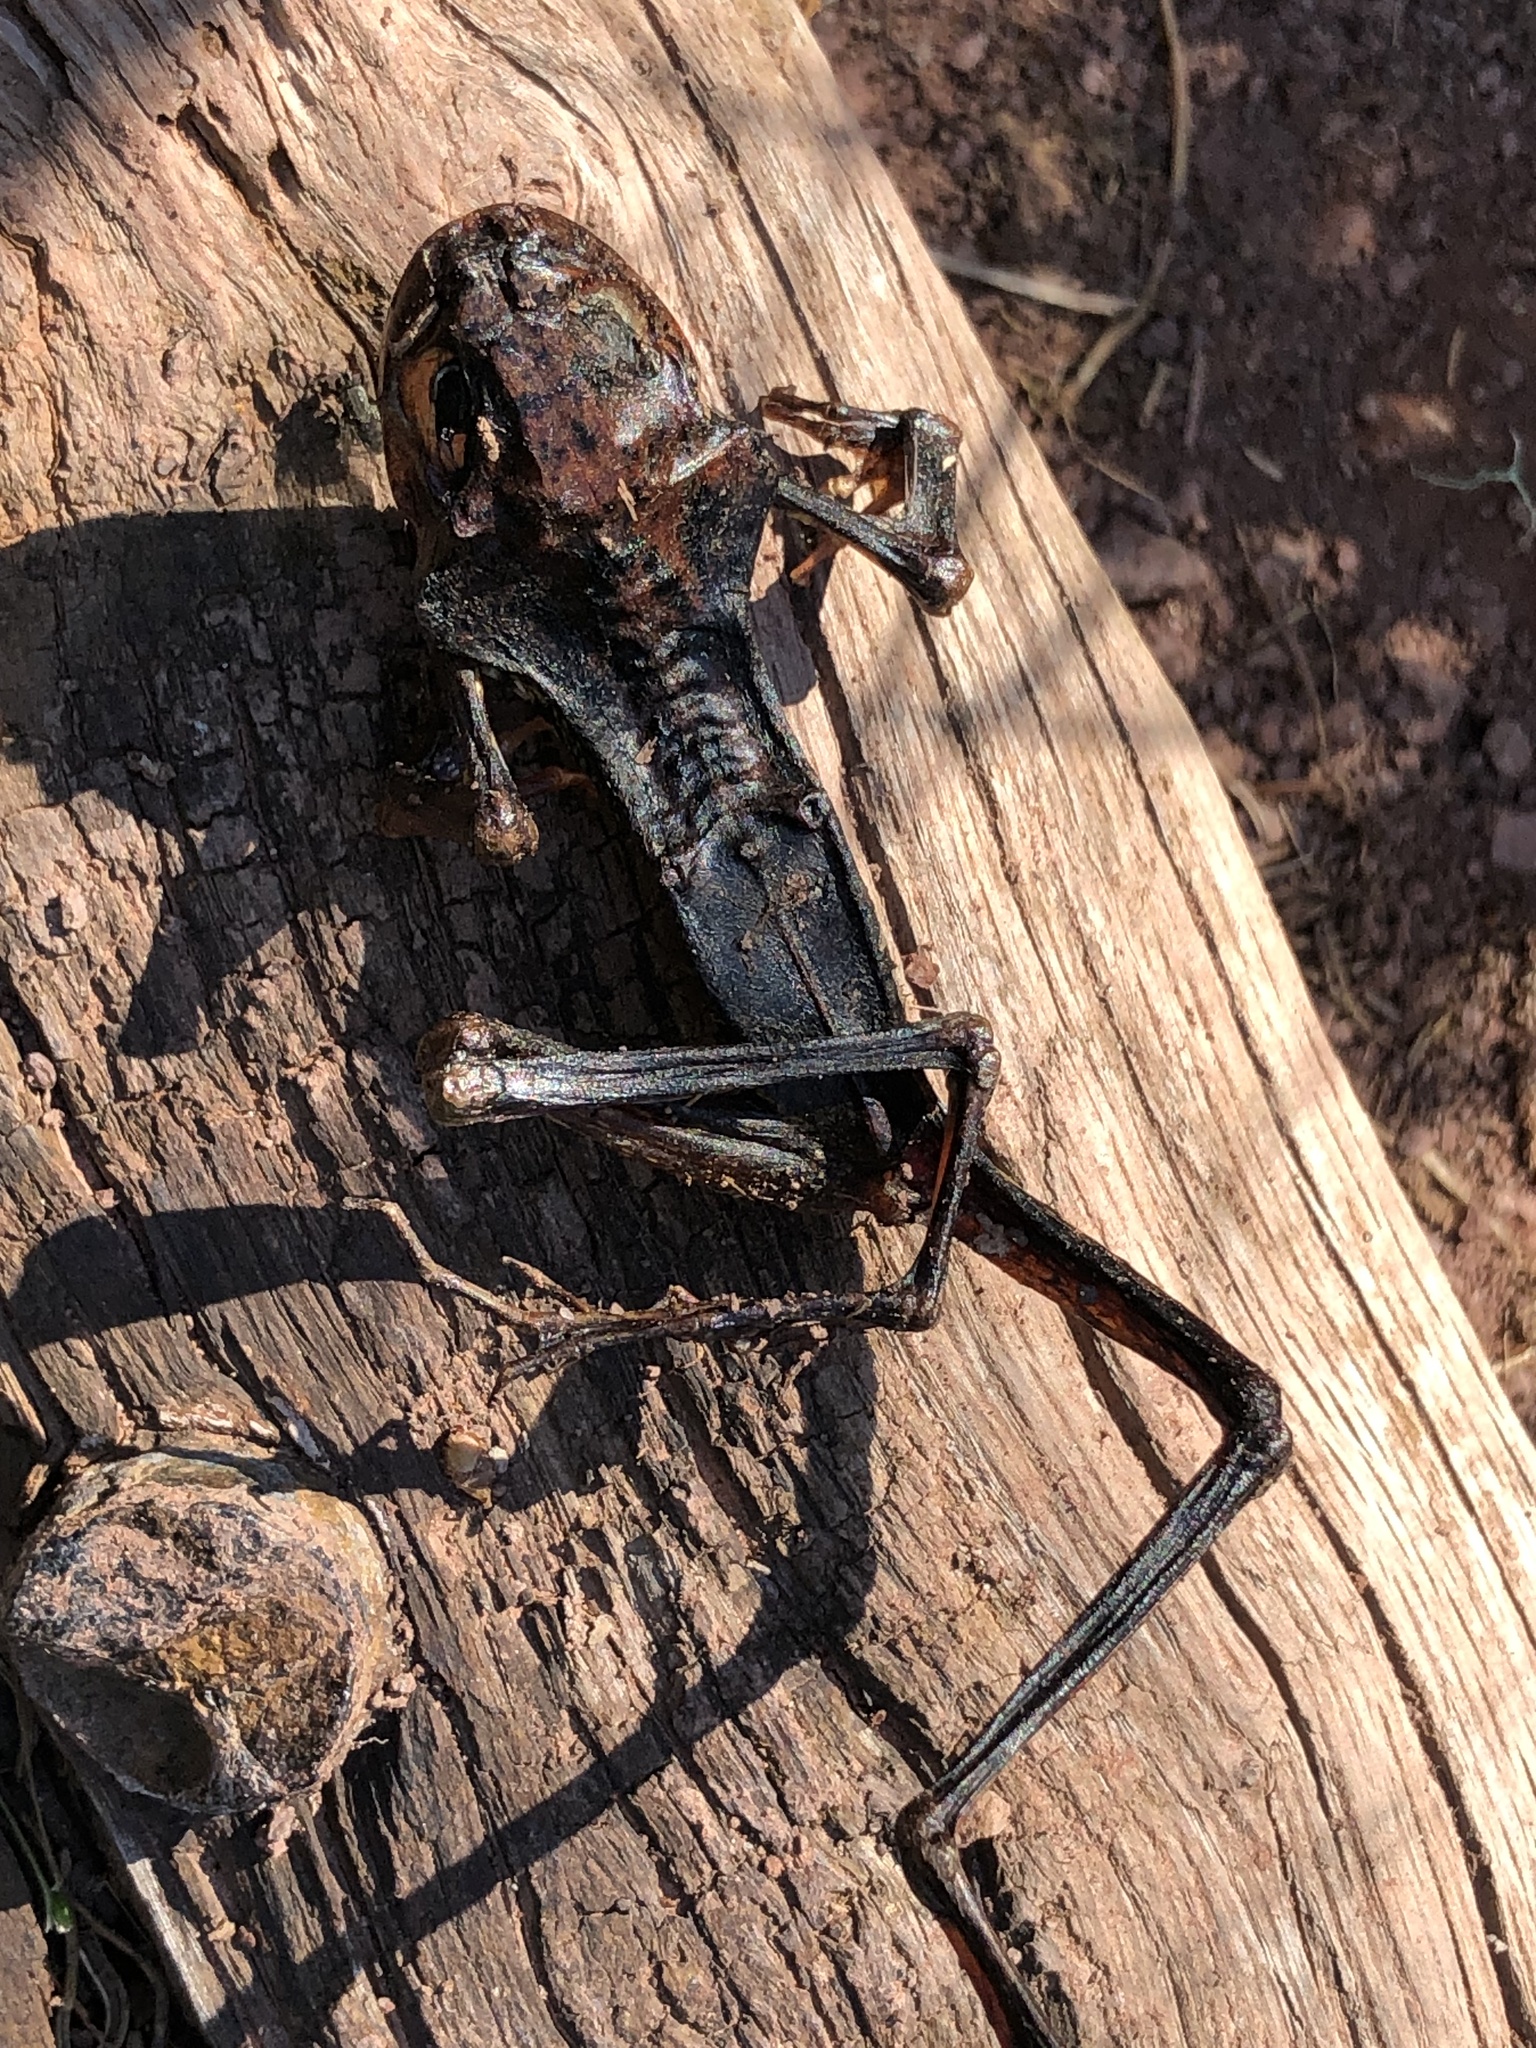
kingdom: Animalia
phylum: Chordata
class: Amphibia
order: Anura
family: Ranidae
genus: Rana
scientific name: Rana temporaria
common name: Common frog
